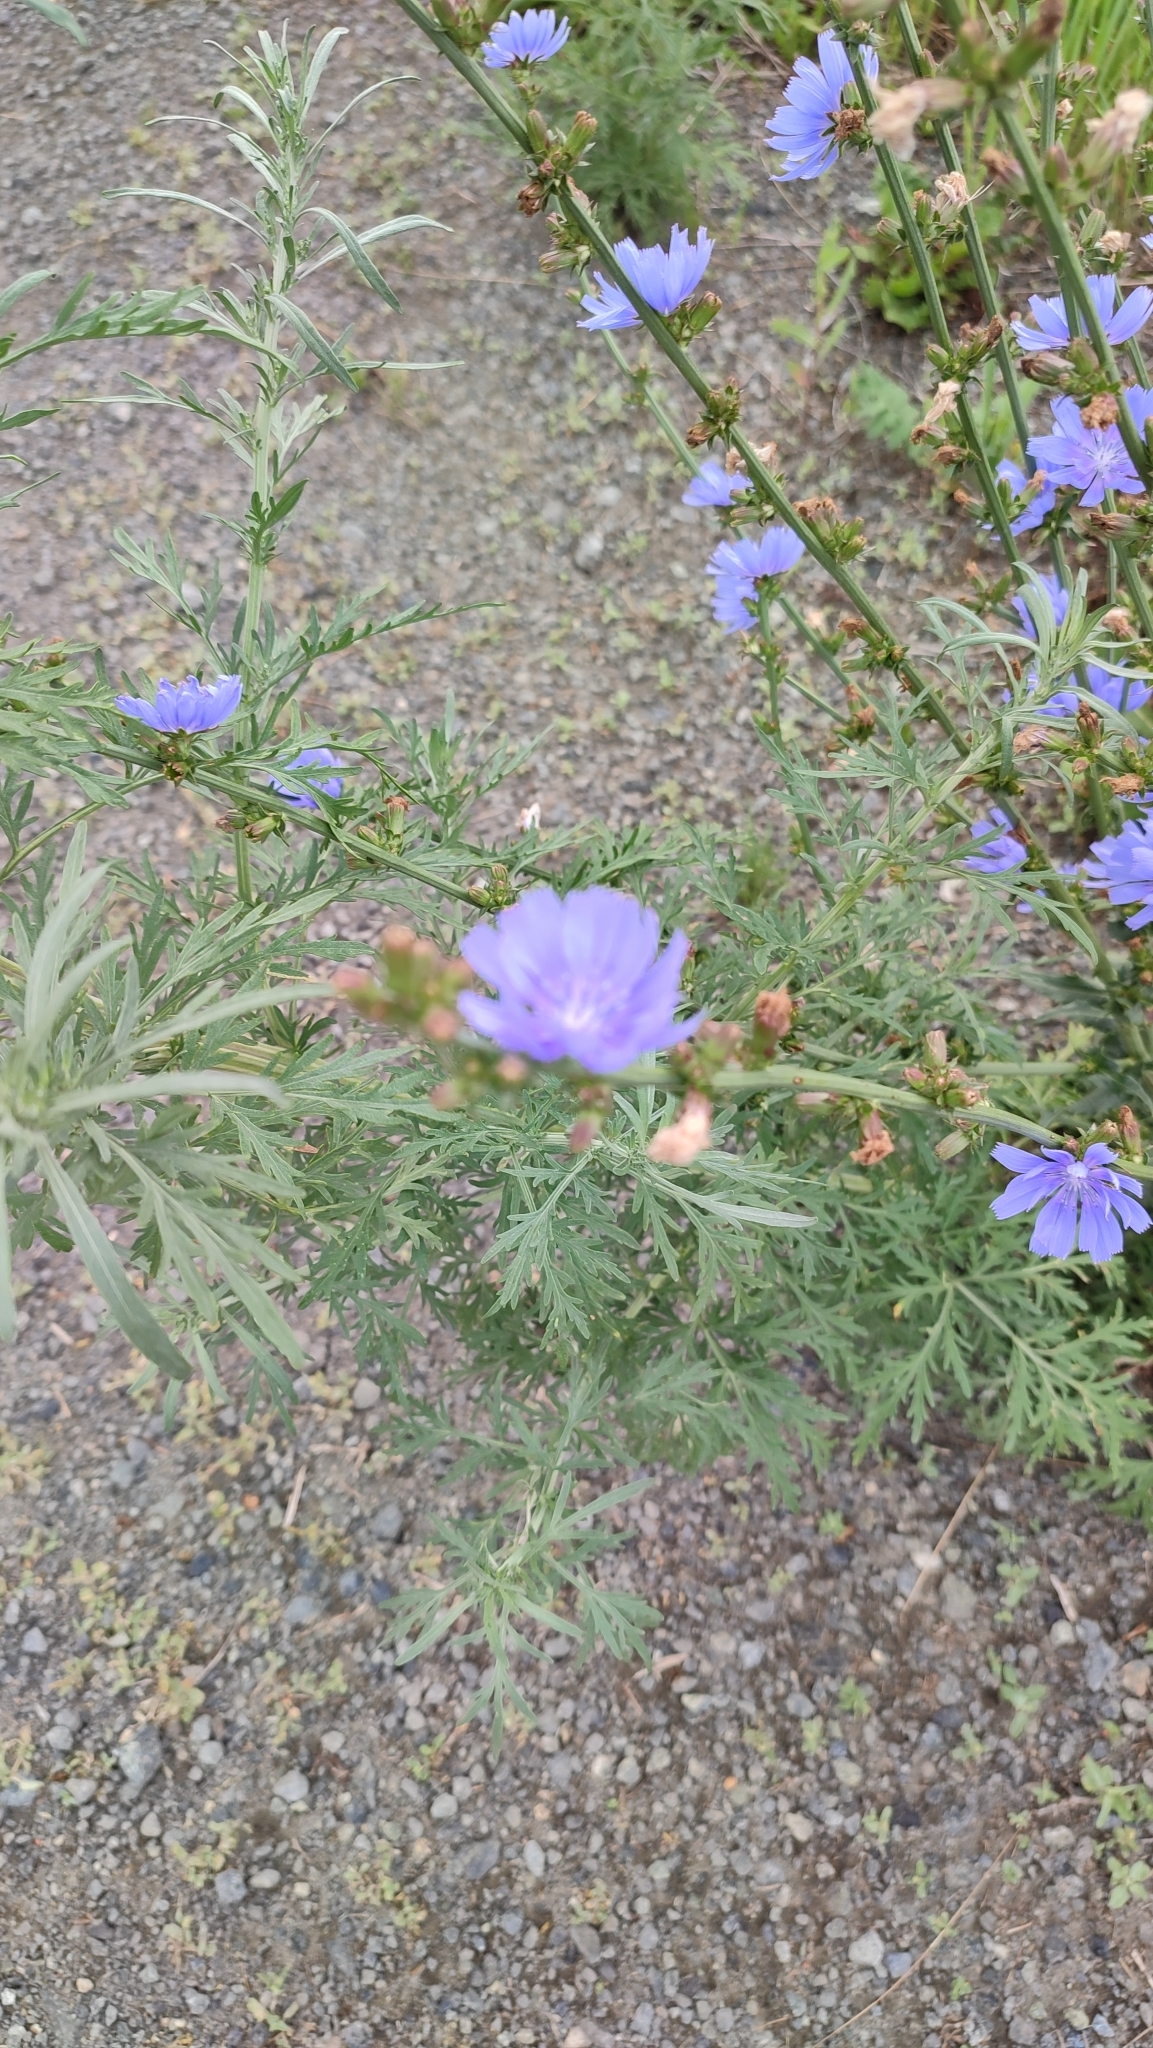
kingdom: Plantae
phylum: Tracheophyta
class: Magnoliopsida
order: Asterales
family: Asteraceae
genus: Cichorium
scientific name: Cichorium intybus
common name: Chicory
